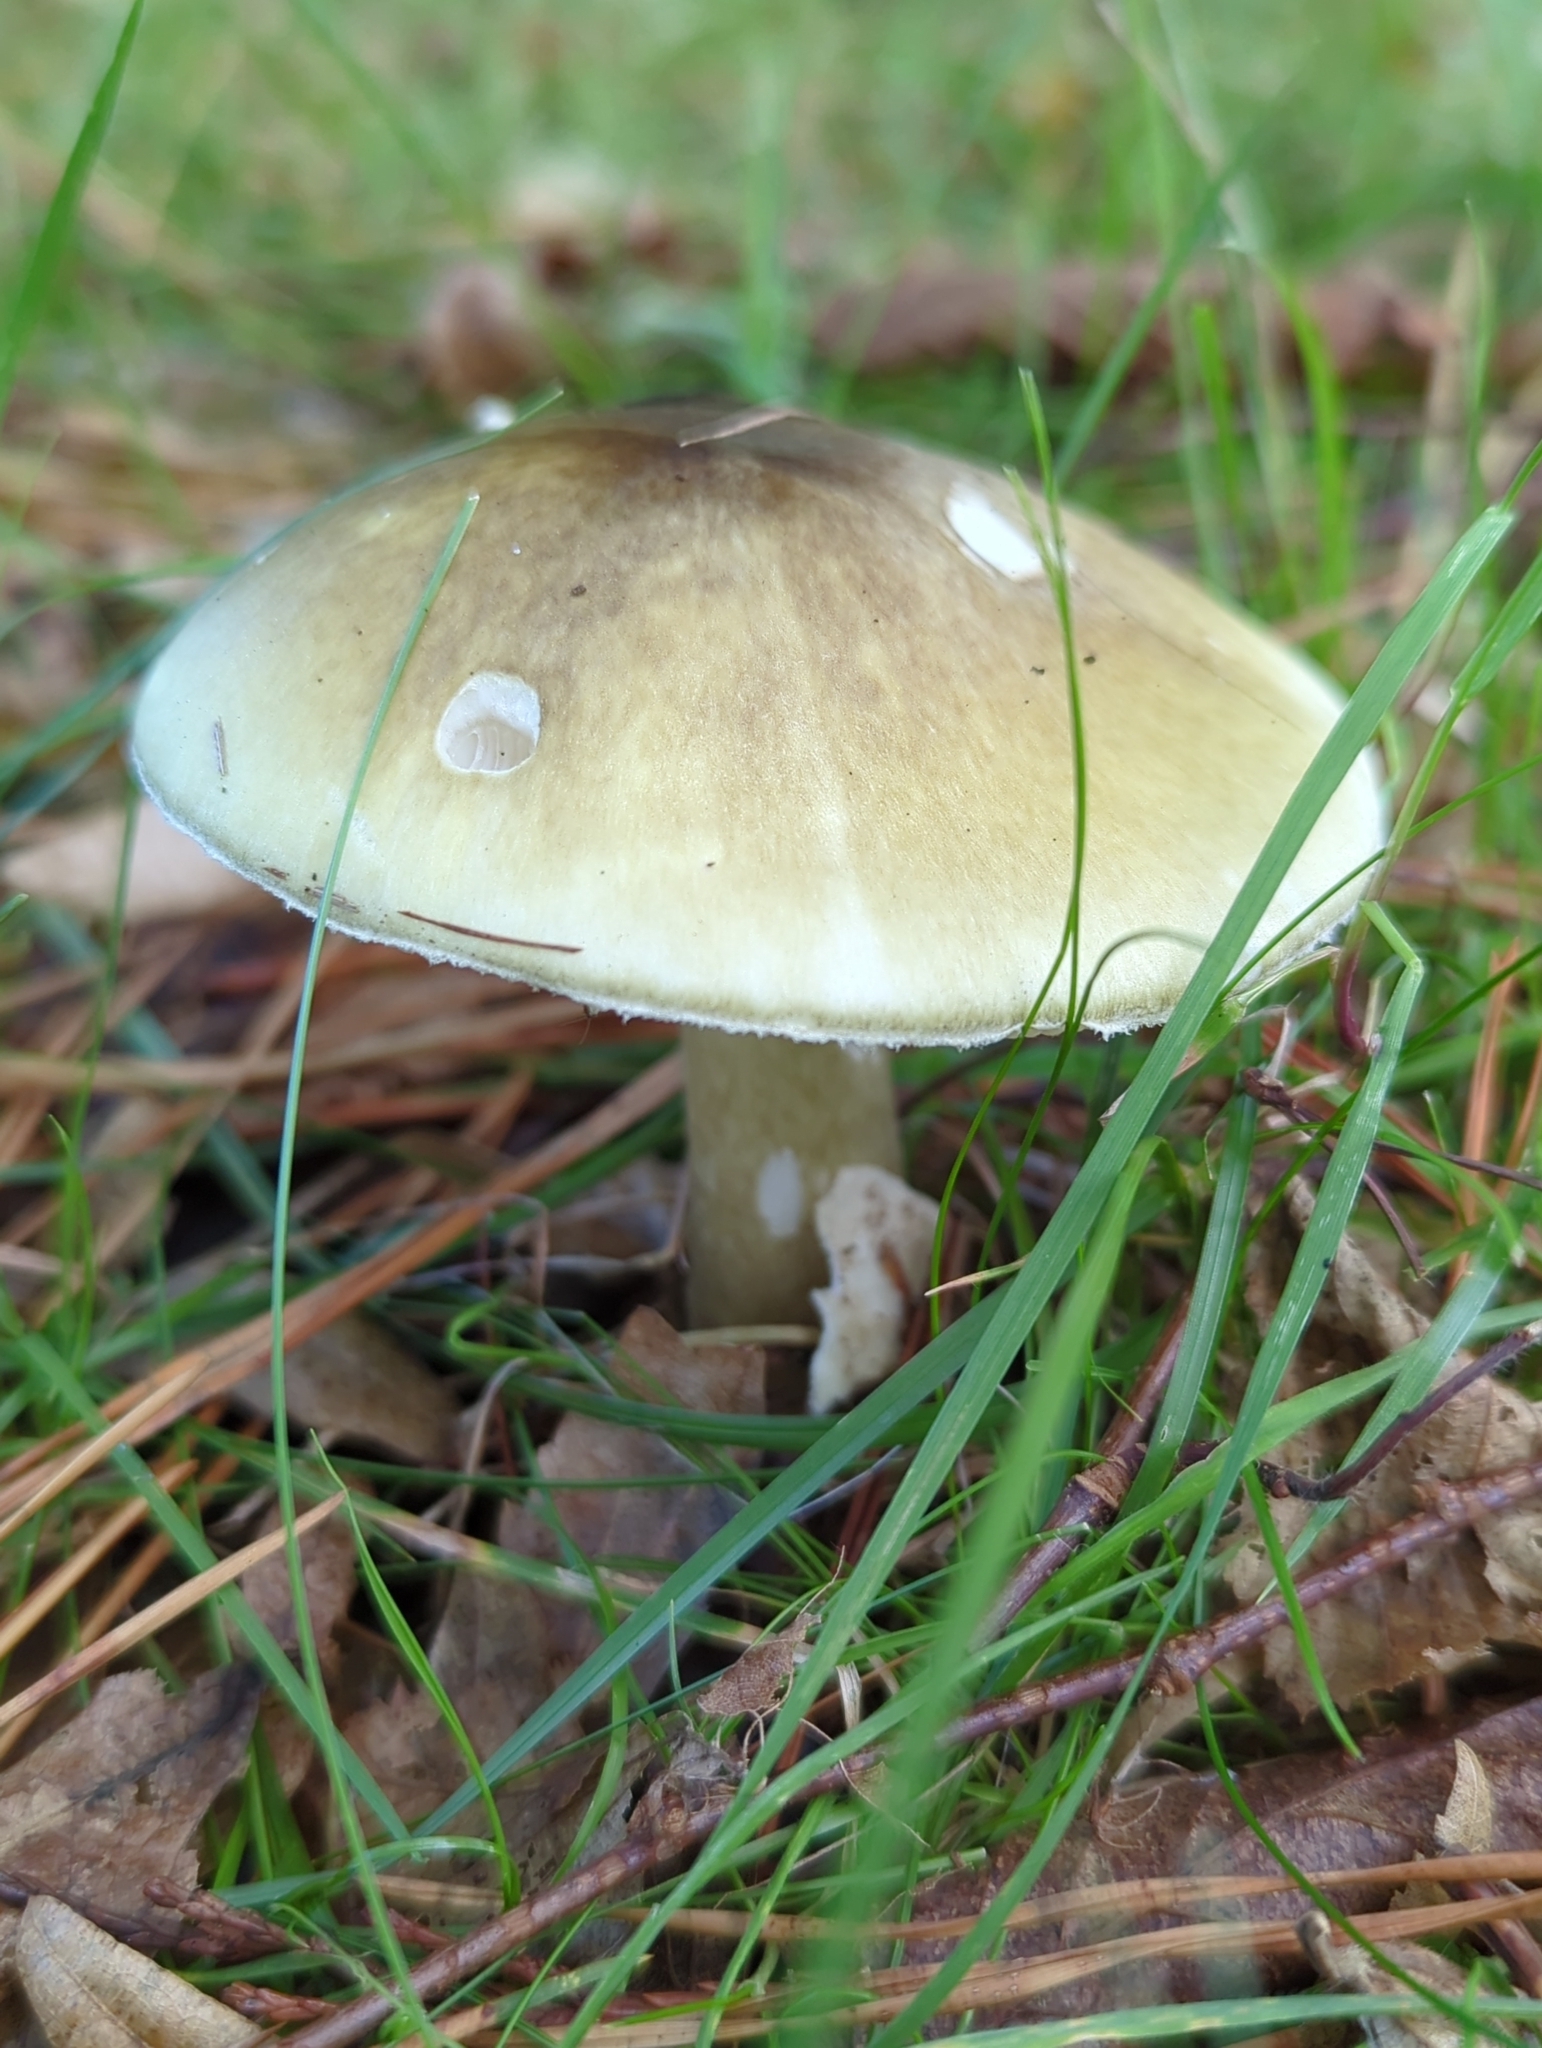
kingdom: Fungi
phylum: Basidiomycota
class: Agaricomycetes
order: Agaricales
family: Amanitaceae
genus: Amanita
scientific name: Amanita phalloides
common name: Death cap
